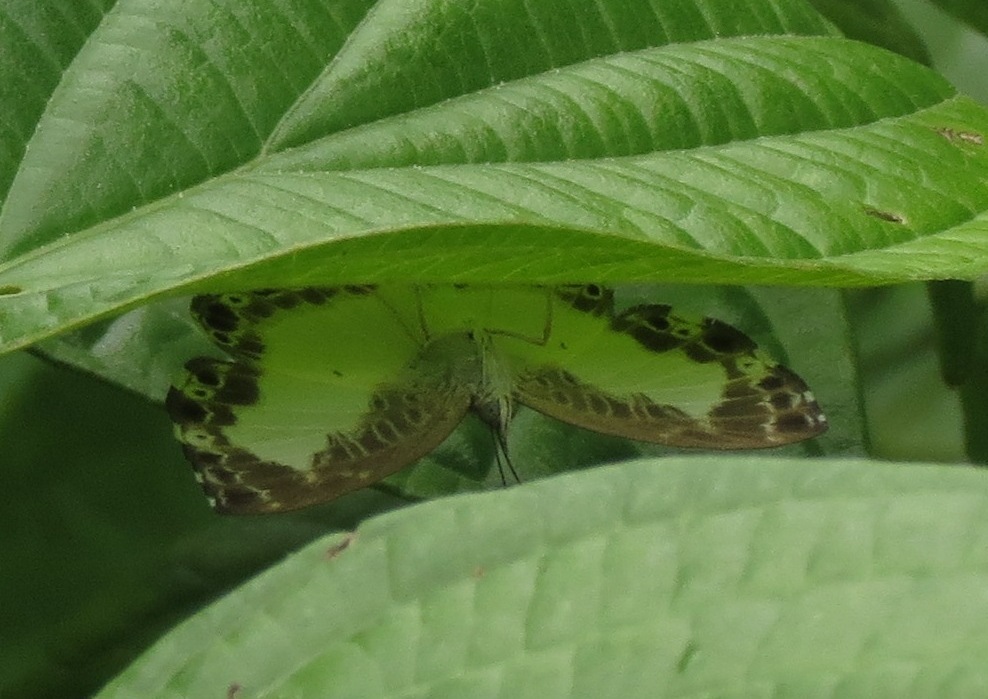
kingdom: Animalia
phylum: Arthropoda
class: Insecta
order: Lepidoptera
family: Riodinidae
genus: Juditha
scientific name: Juditha lamis
